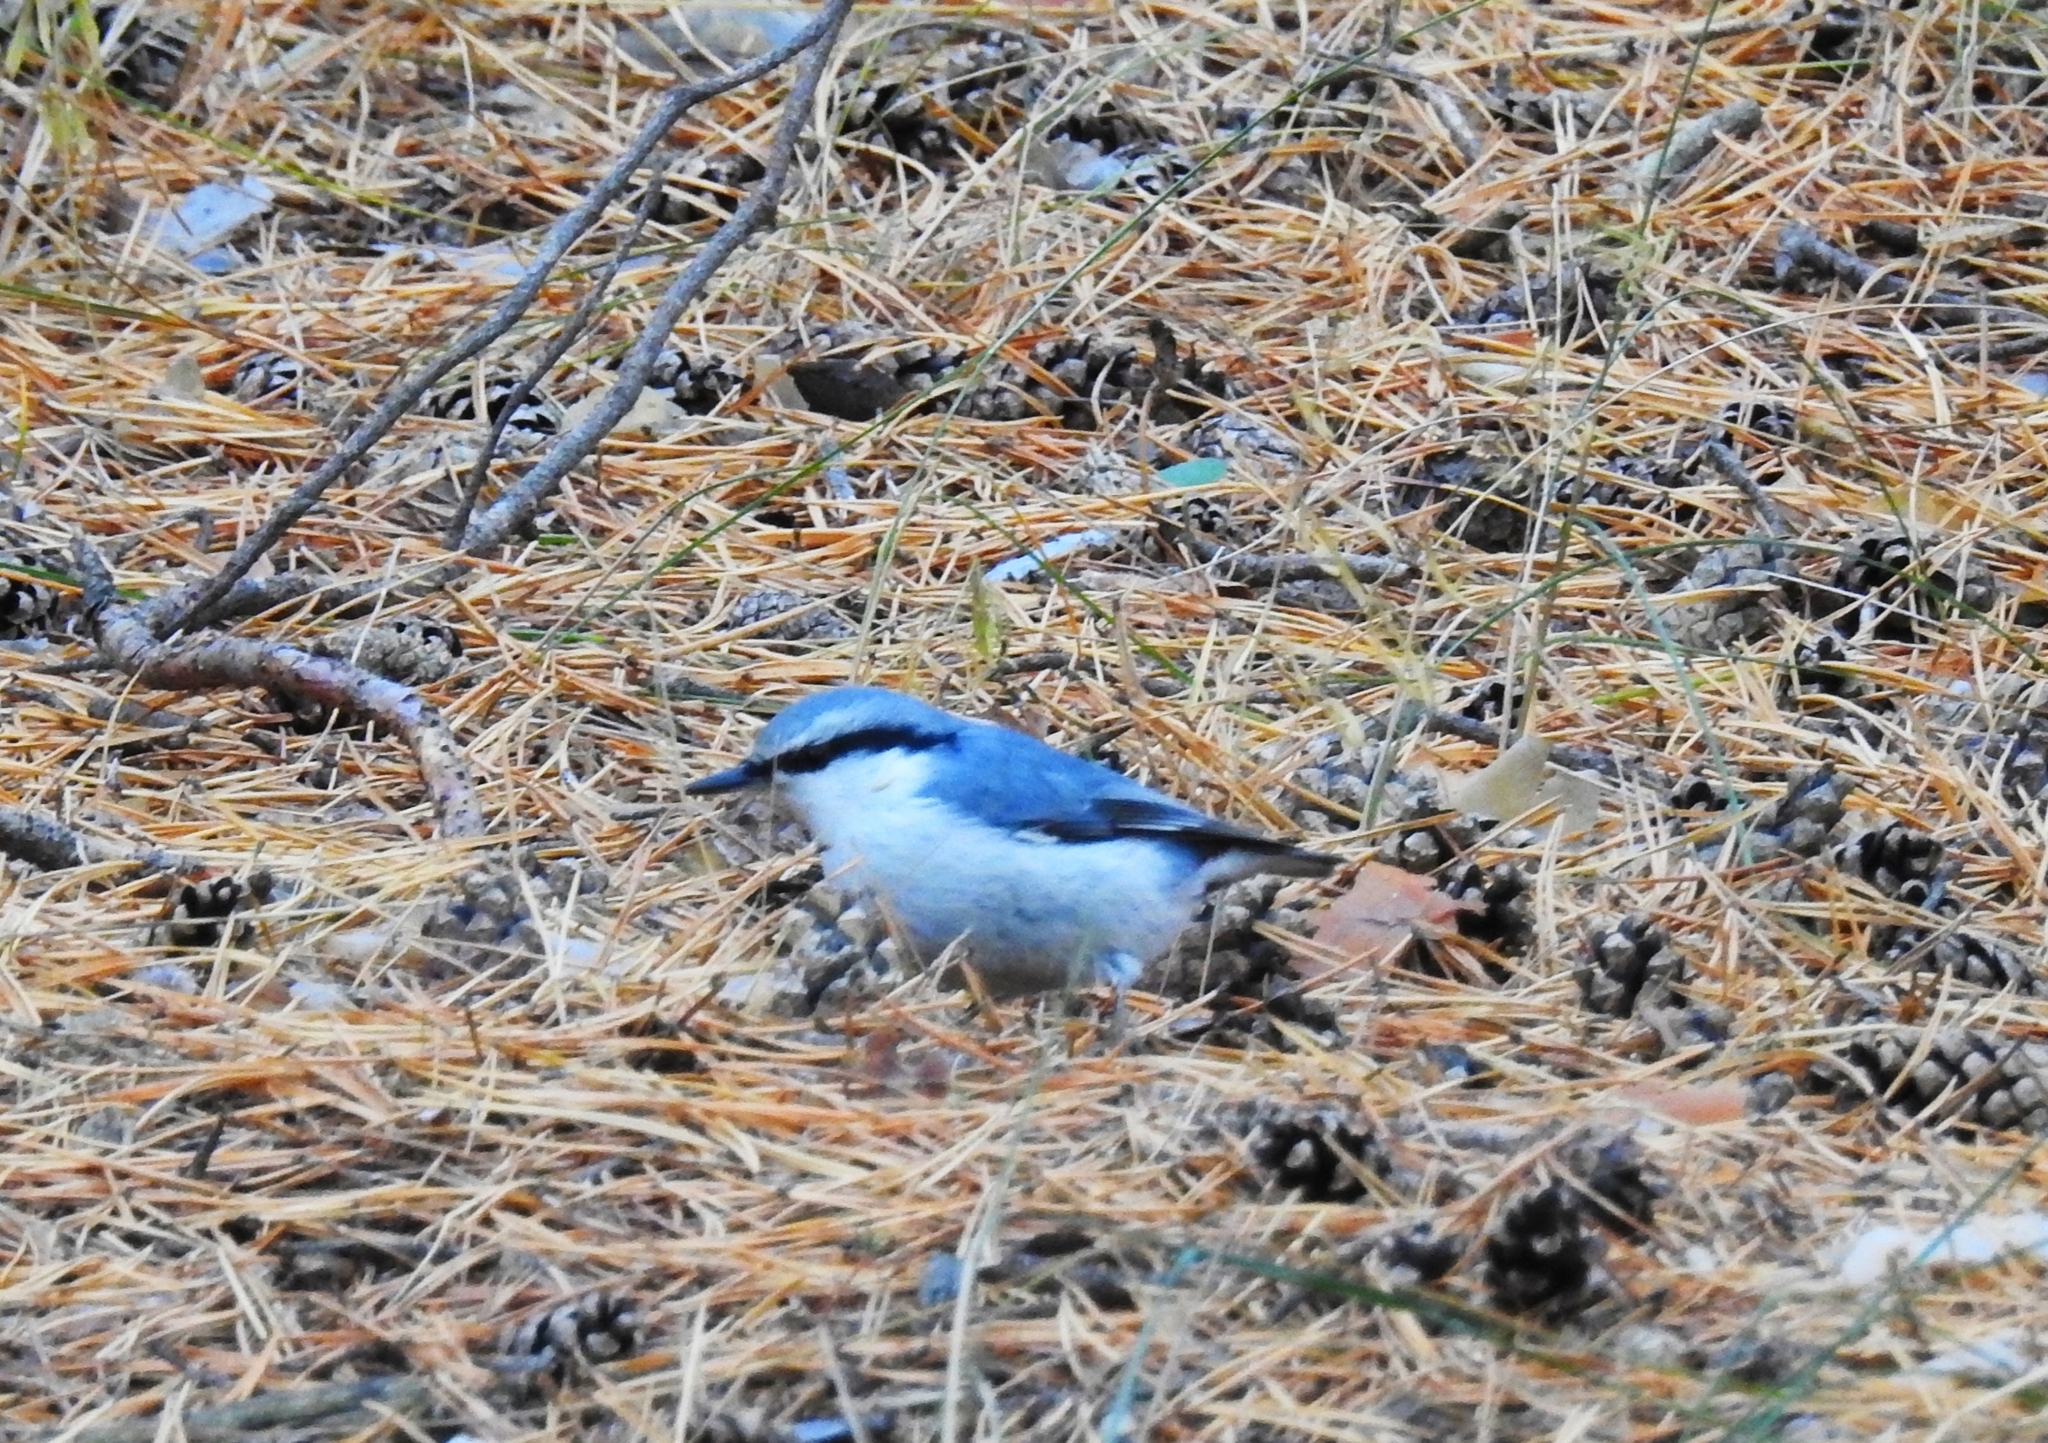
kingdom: Animalia
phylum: Chordata
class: Aves
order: Passeriformes
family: Sittidae
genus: Sitta
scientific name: Sitta europaea
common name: Eurasian nuthatch
